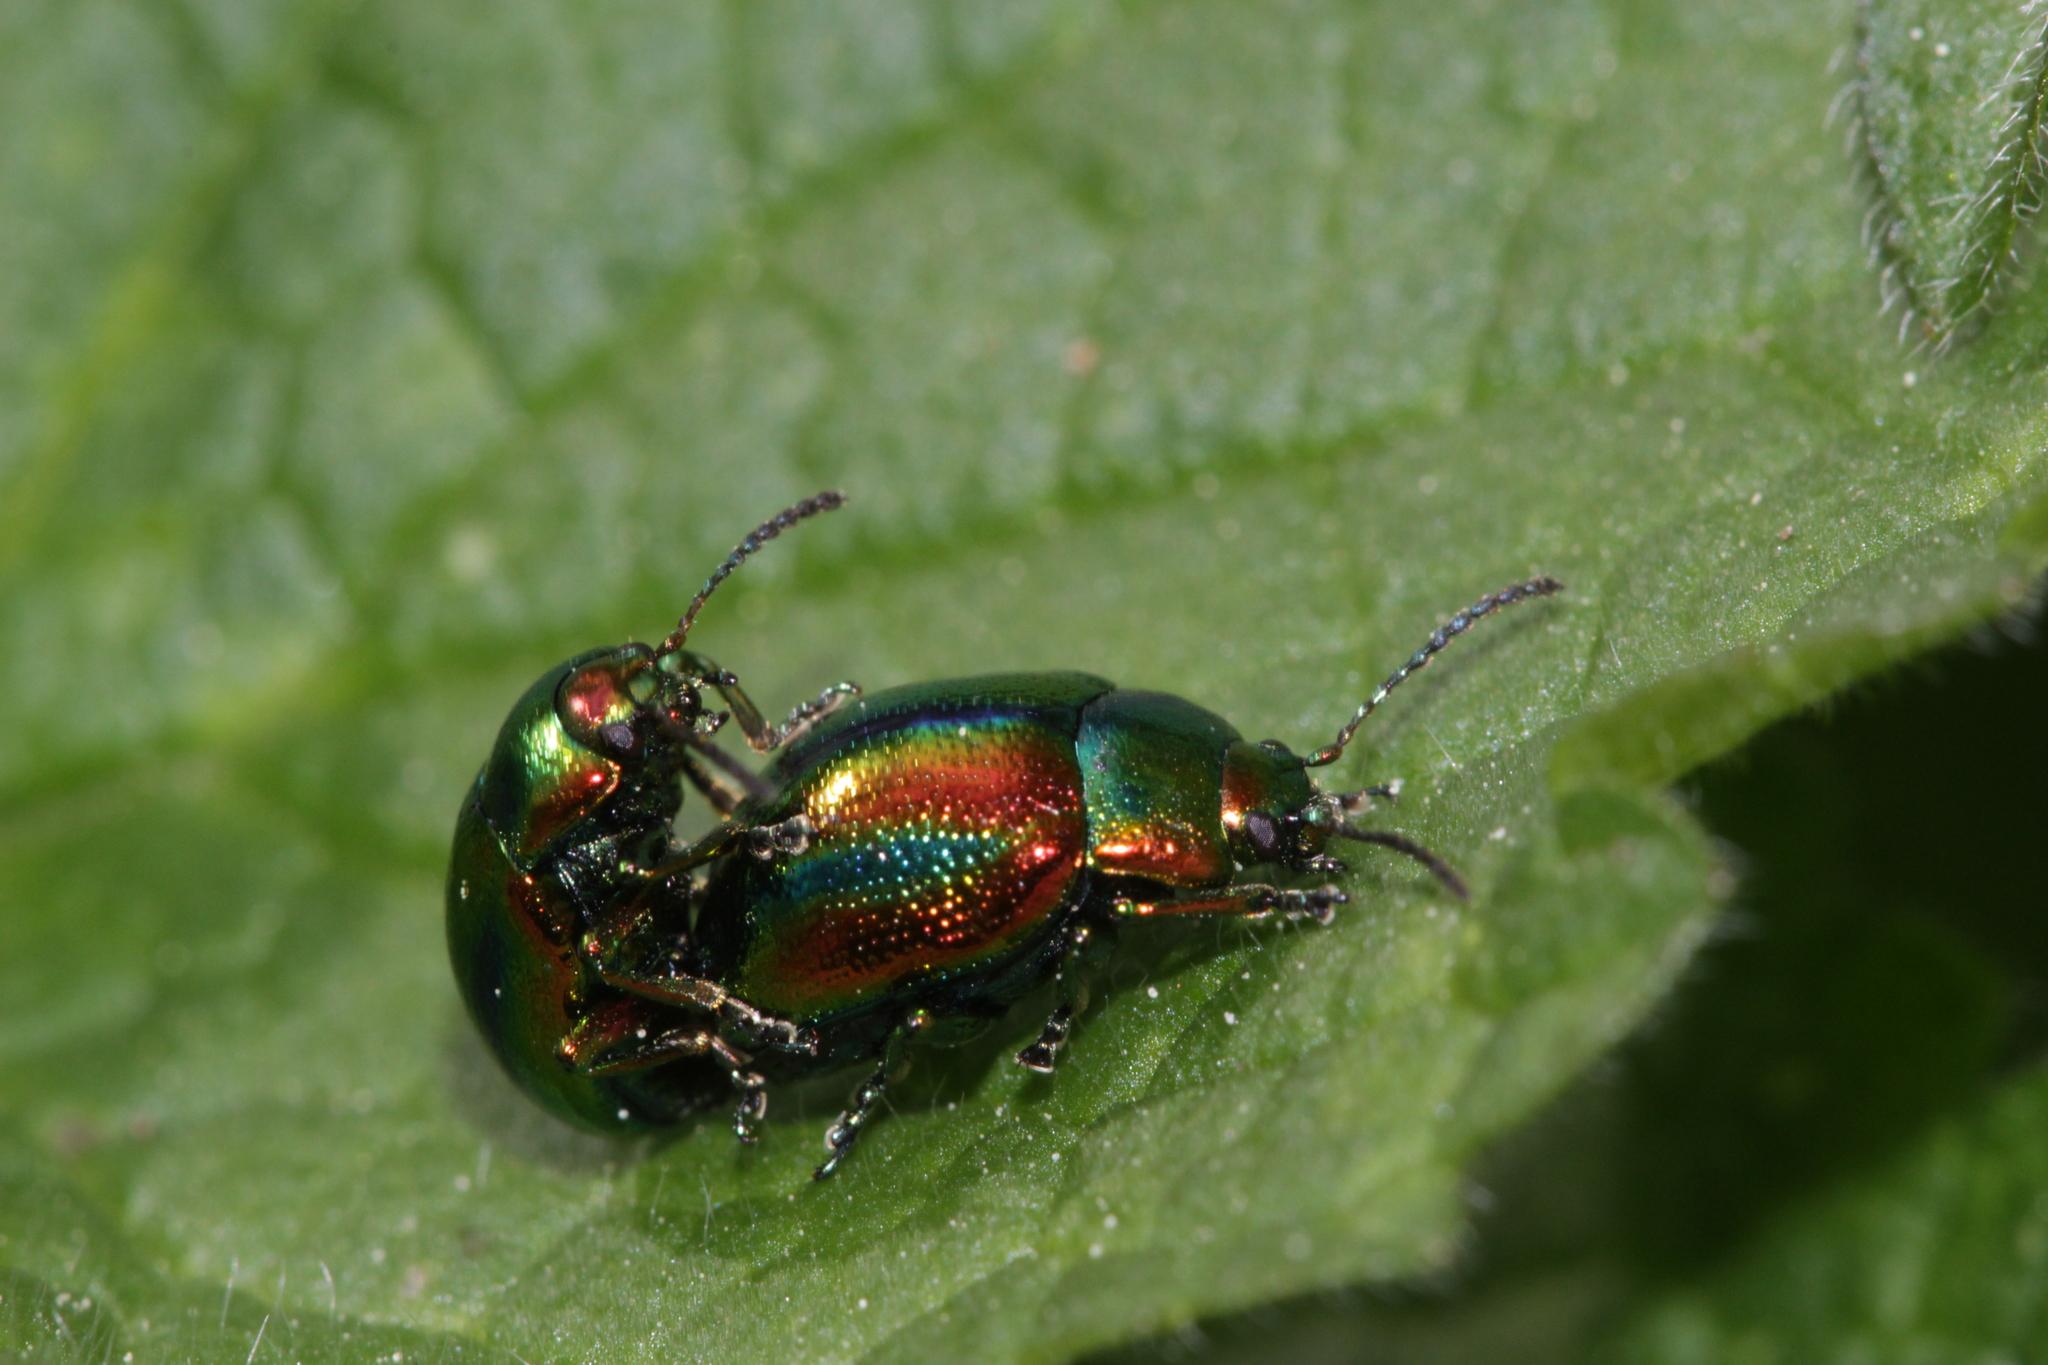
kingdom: Animalia
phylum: Arthropoda
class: Insecta
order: Coleoptera
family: Chrysomelidae
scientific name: Chrysomelidae
